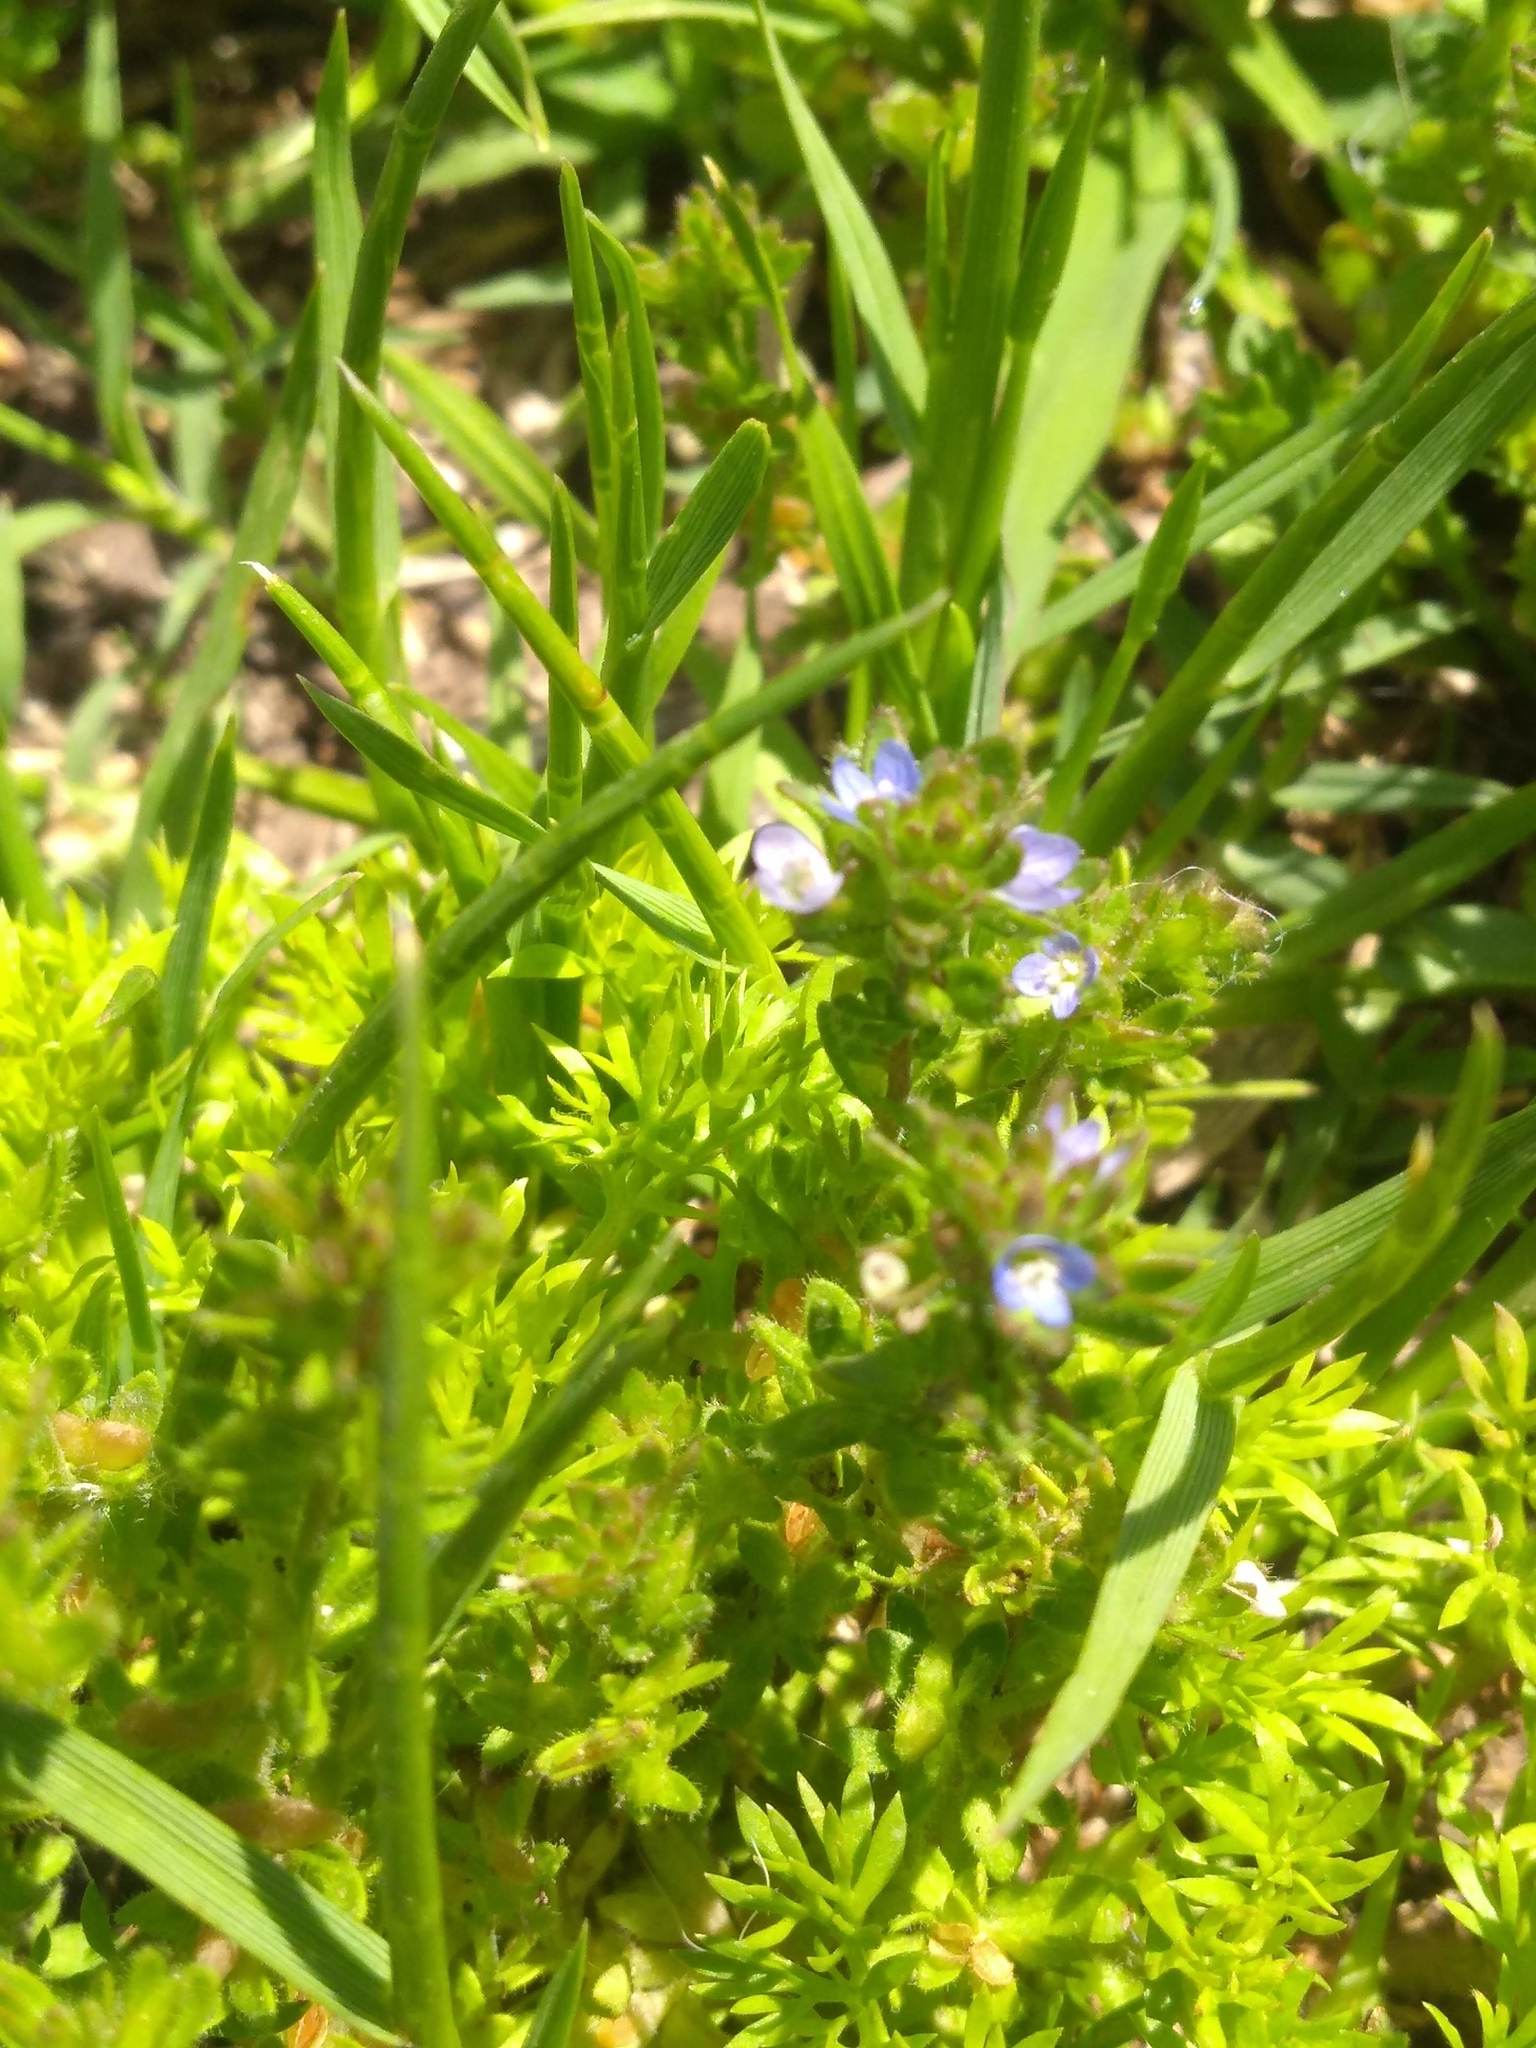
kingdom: Plantae
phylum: Tracheophyta
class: Magnoliopsida
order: Lamiales
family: Plantaginaceae
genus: Veronica
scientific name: Veronica arvensis
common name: Corn speedwell
